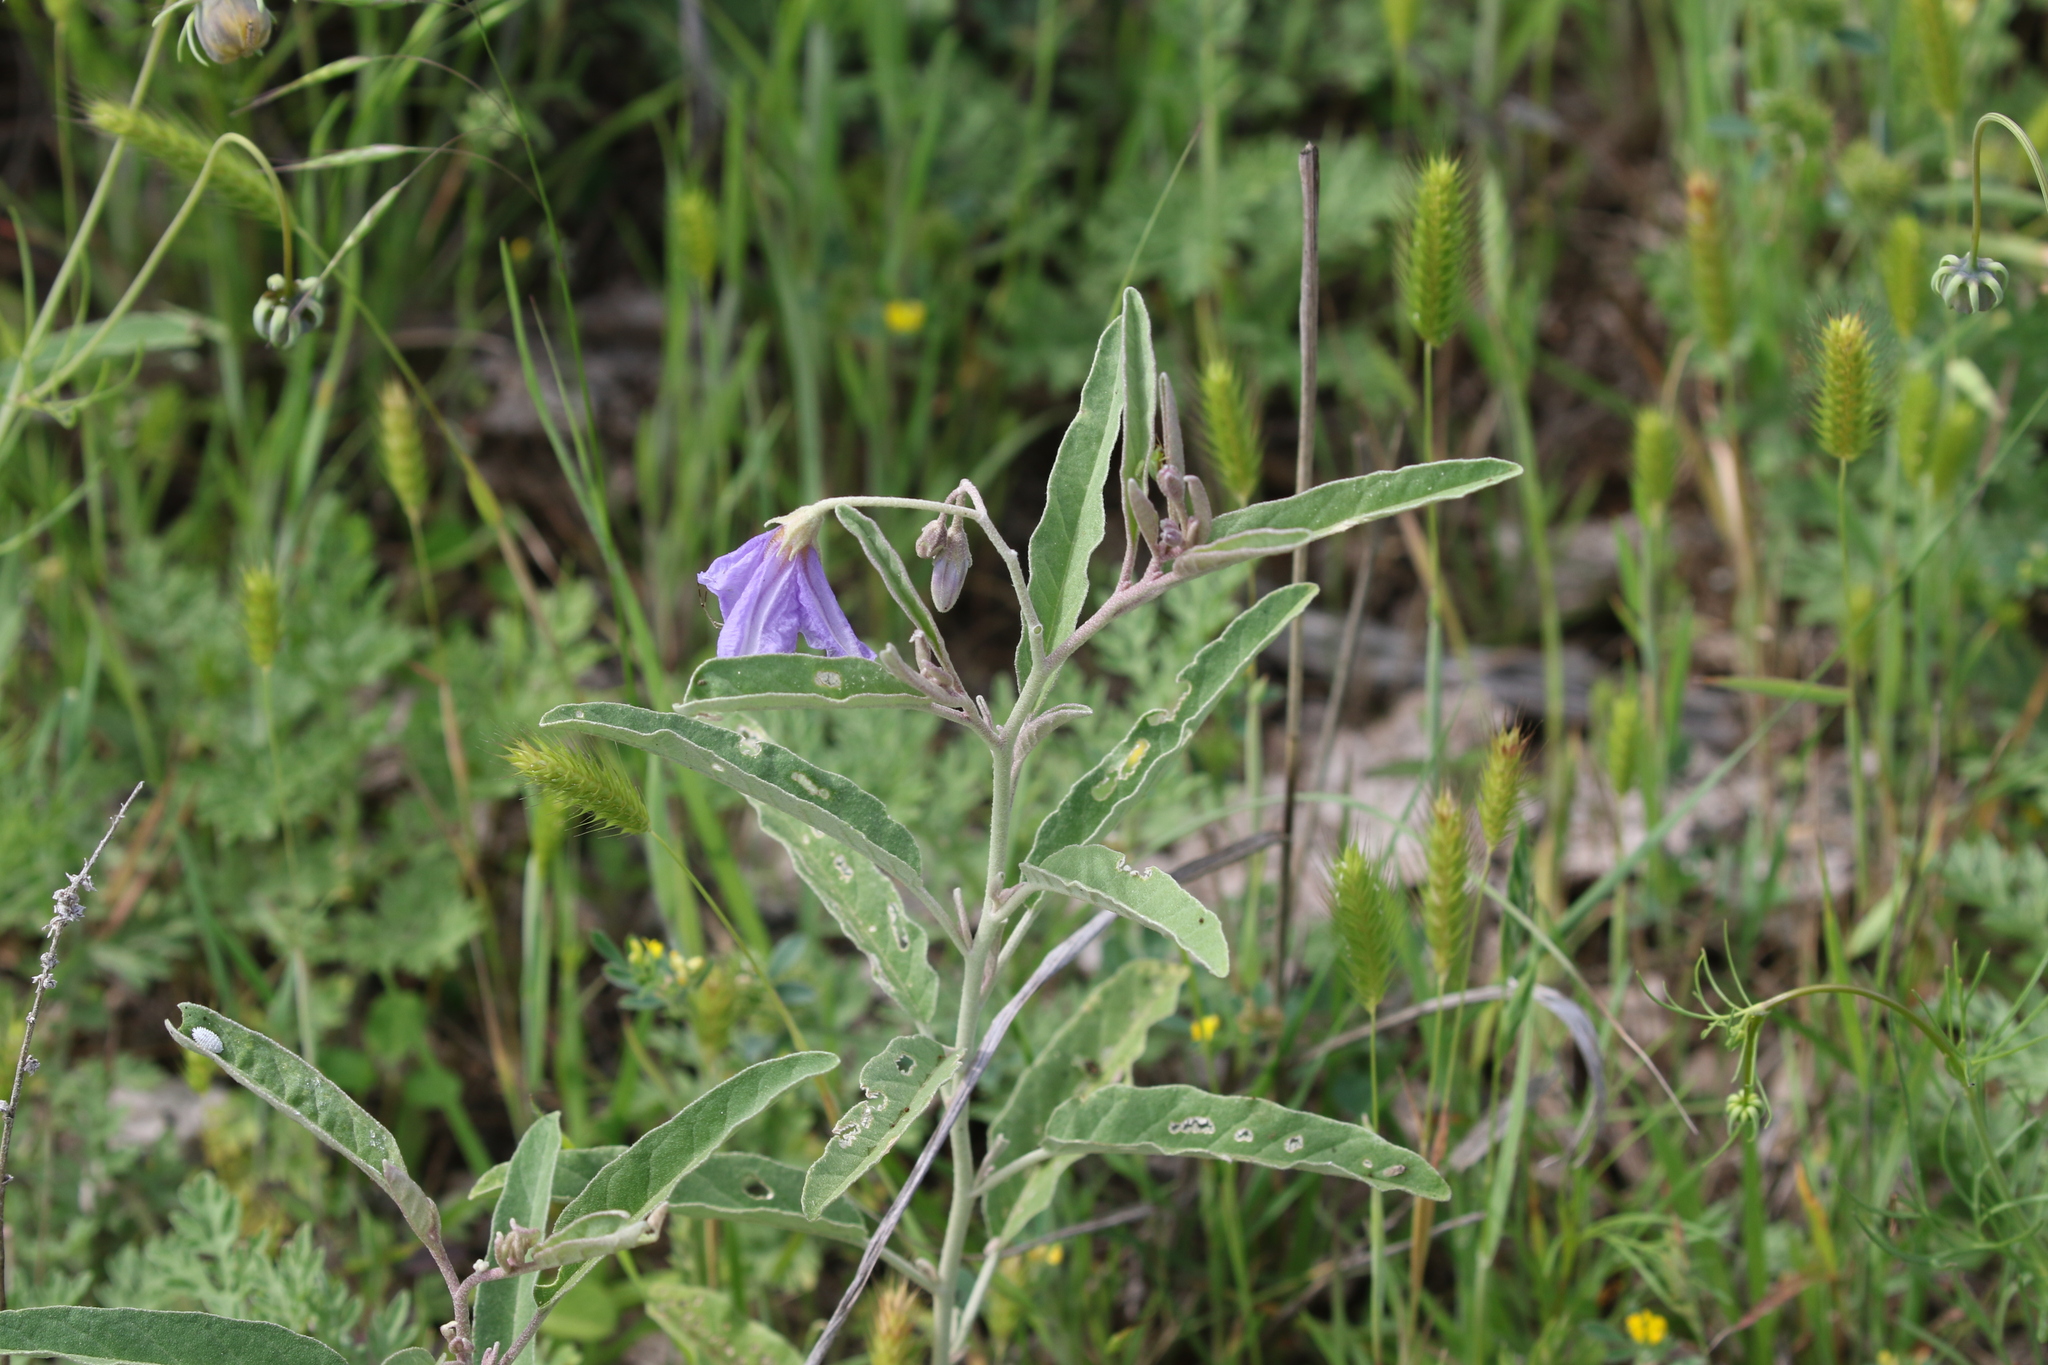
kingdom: Plantae
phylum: Tracheophyta
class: Magnoliopsida
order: Solanales
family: Solanaceae
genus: Solanum
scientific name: Solanum elaeagnifolium
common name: Silverleaf nightshade
